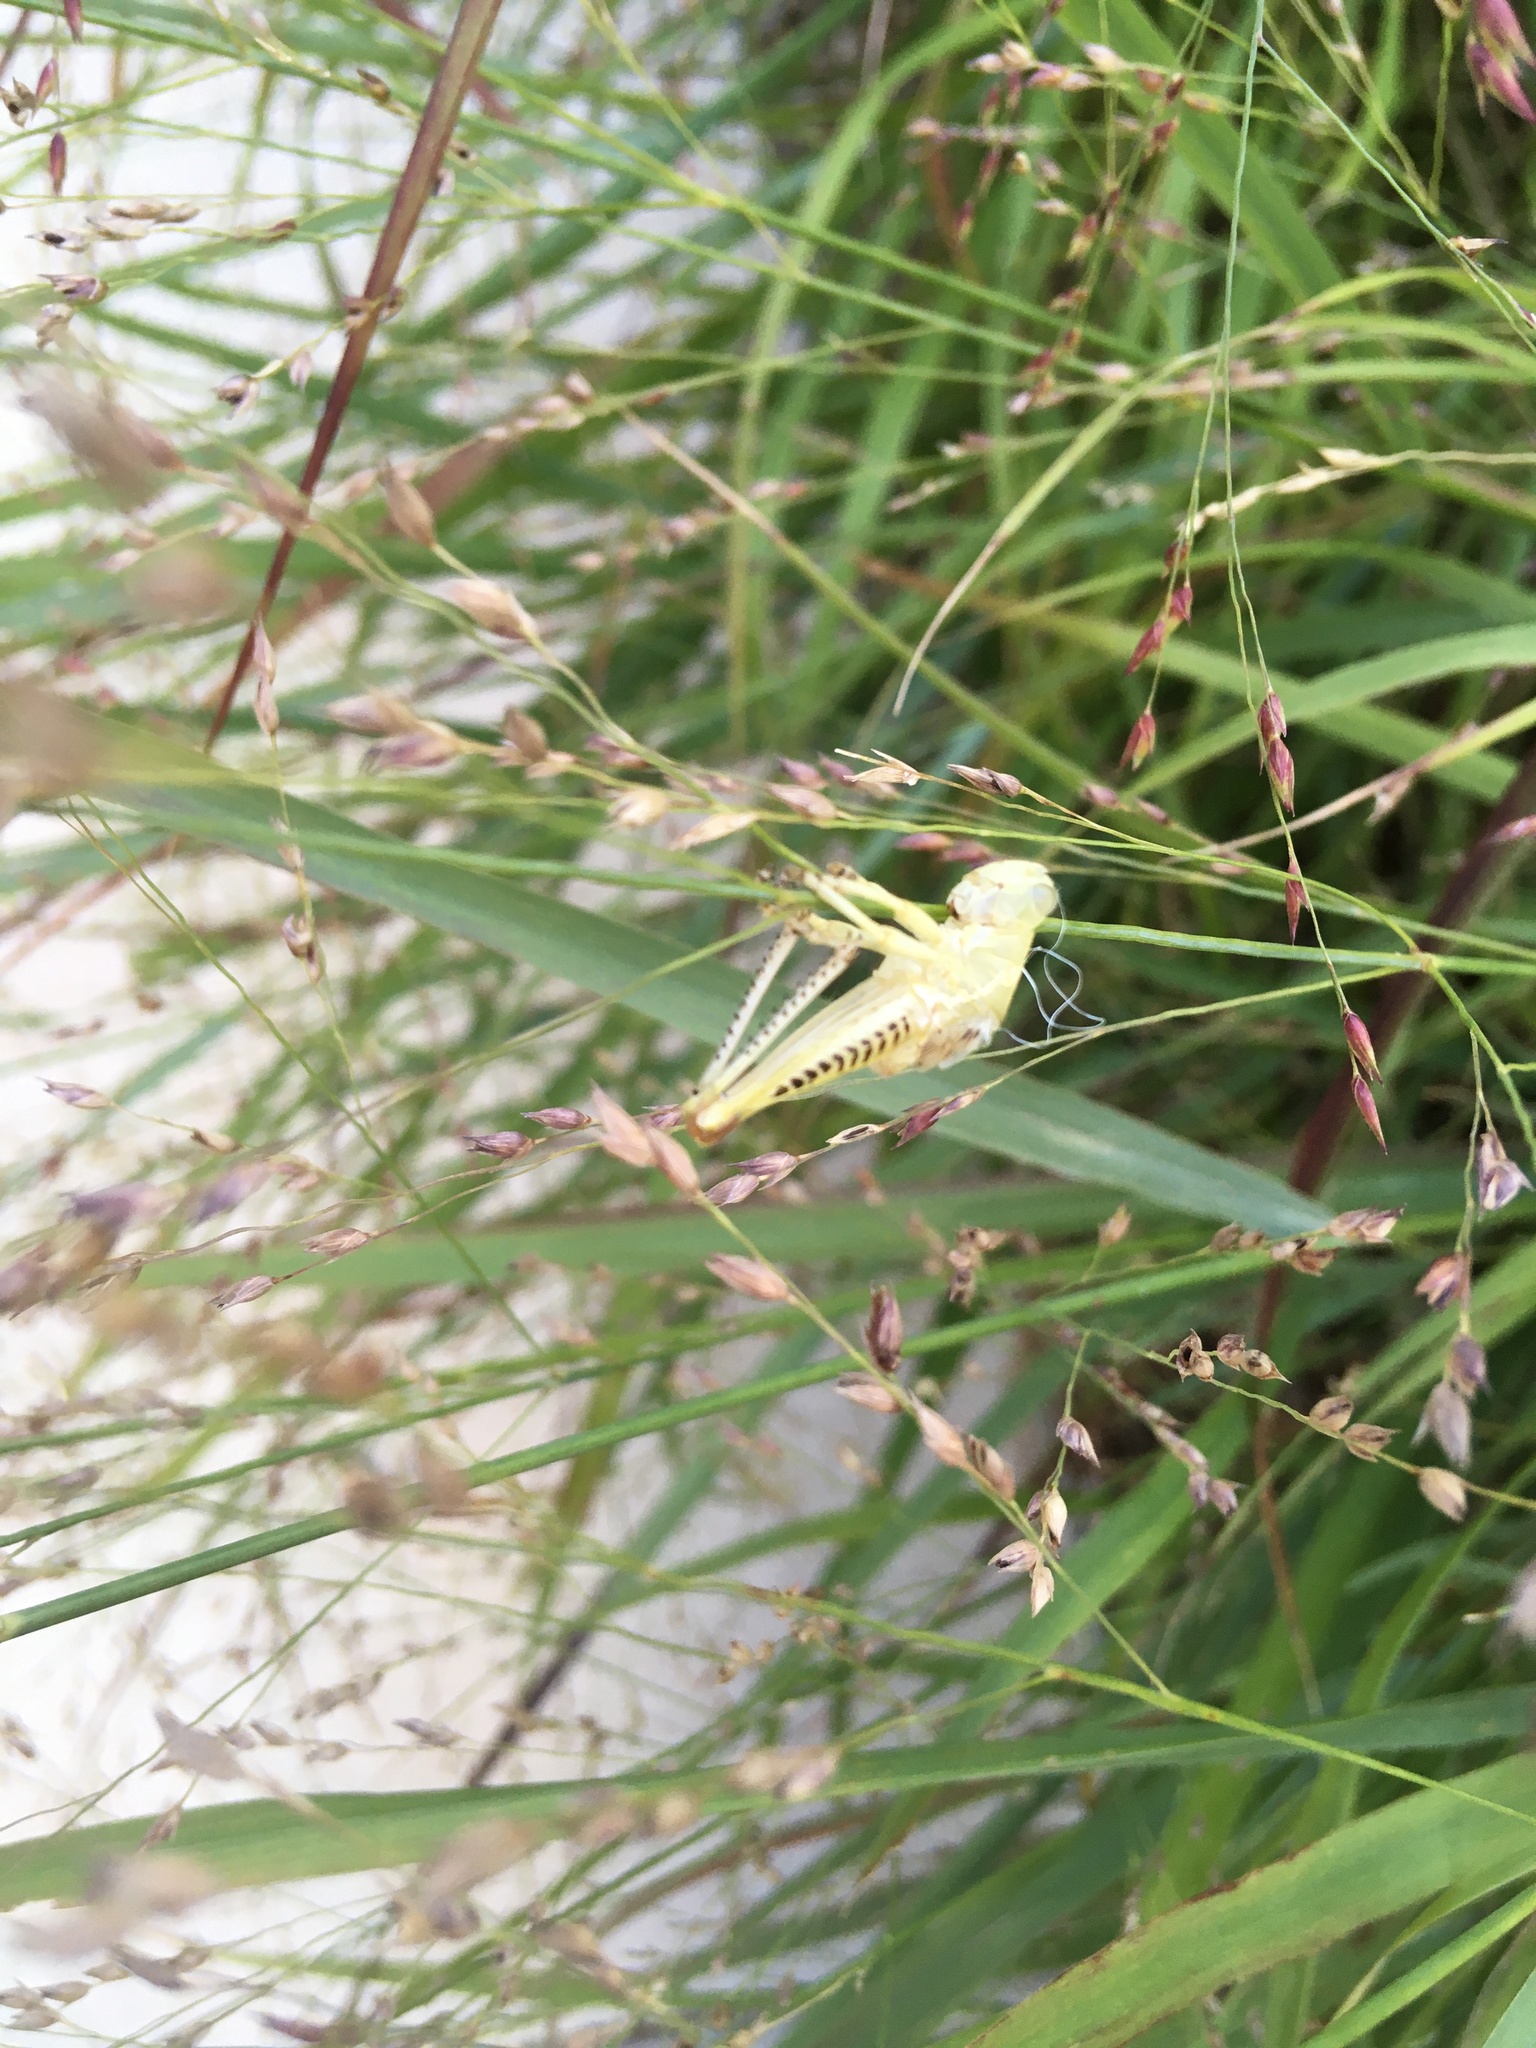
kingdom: Animalia
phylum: Arthropoda
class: Insecta
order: Orthoptera
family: Acrididae
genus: Melanoplus
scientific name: Melanoplus differentialis
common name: Differential grasshopper
